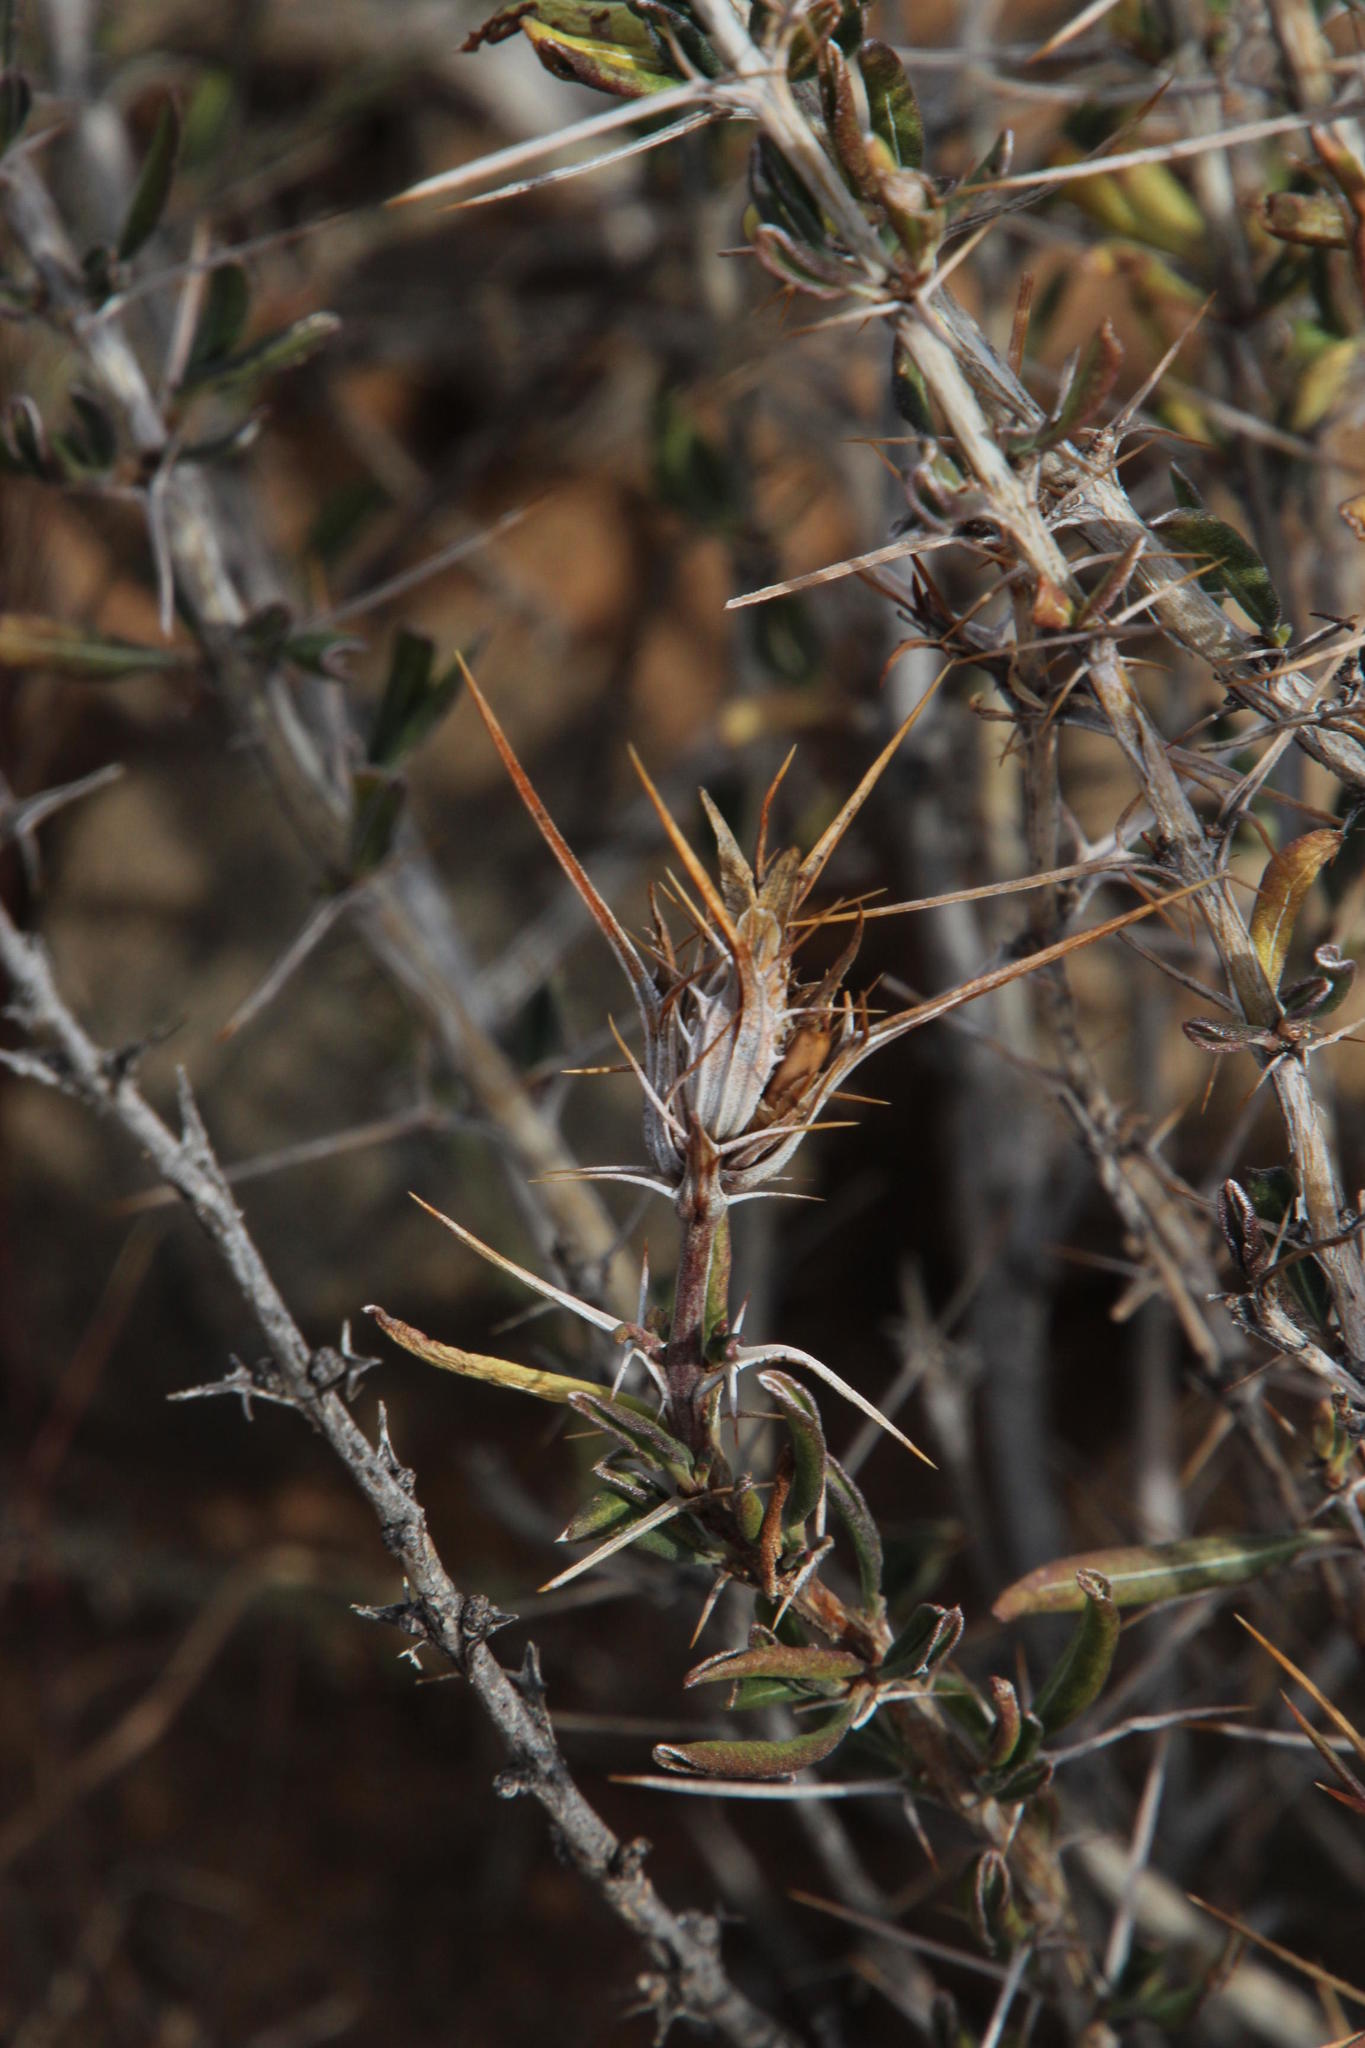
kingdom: Plantae
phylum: Tracheophyta
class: Magnoliopsida
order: Lamiales
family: Acanthaceae
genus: Blepharis
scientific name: Blepharis capensis
